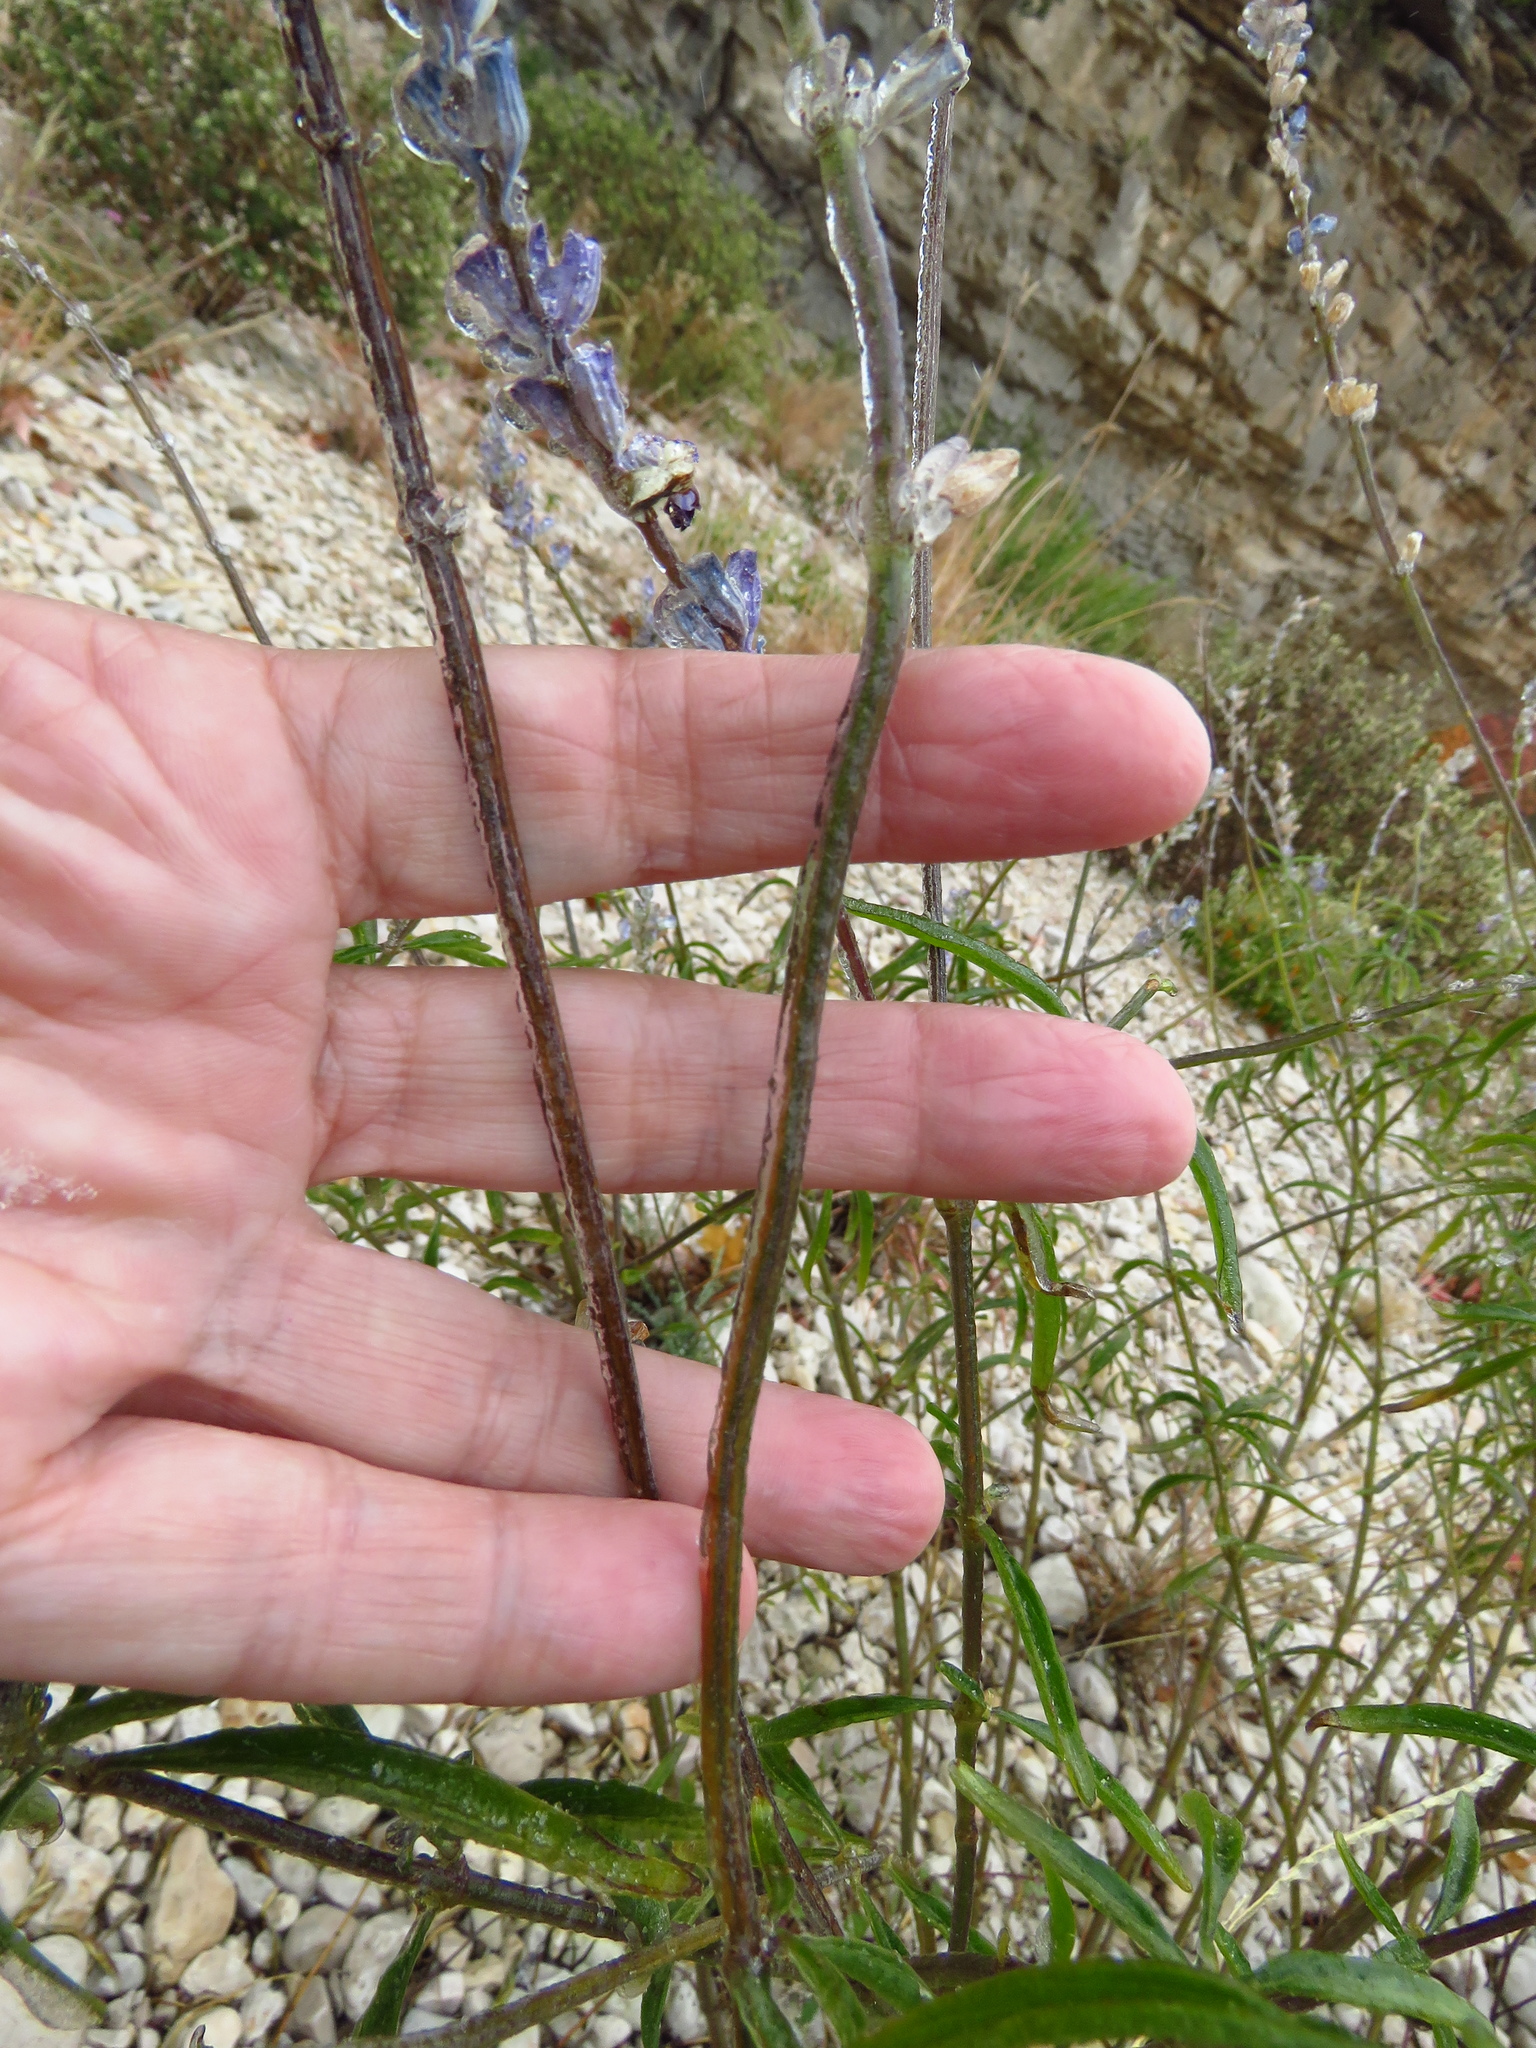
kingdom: Plantae
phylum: Tracheophyta
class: Magnoliopsida
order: Lamiales
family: Lamiaceae
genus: Salvia
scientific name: Salvia farinacea
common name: Mealy sage
